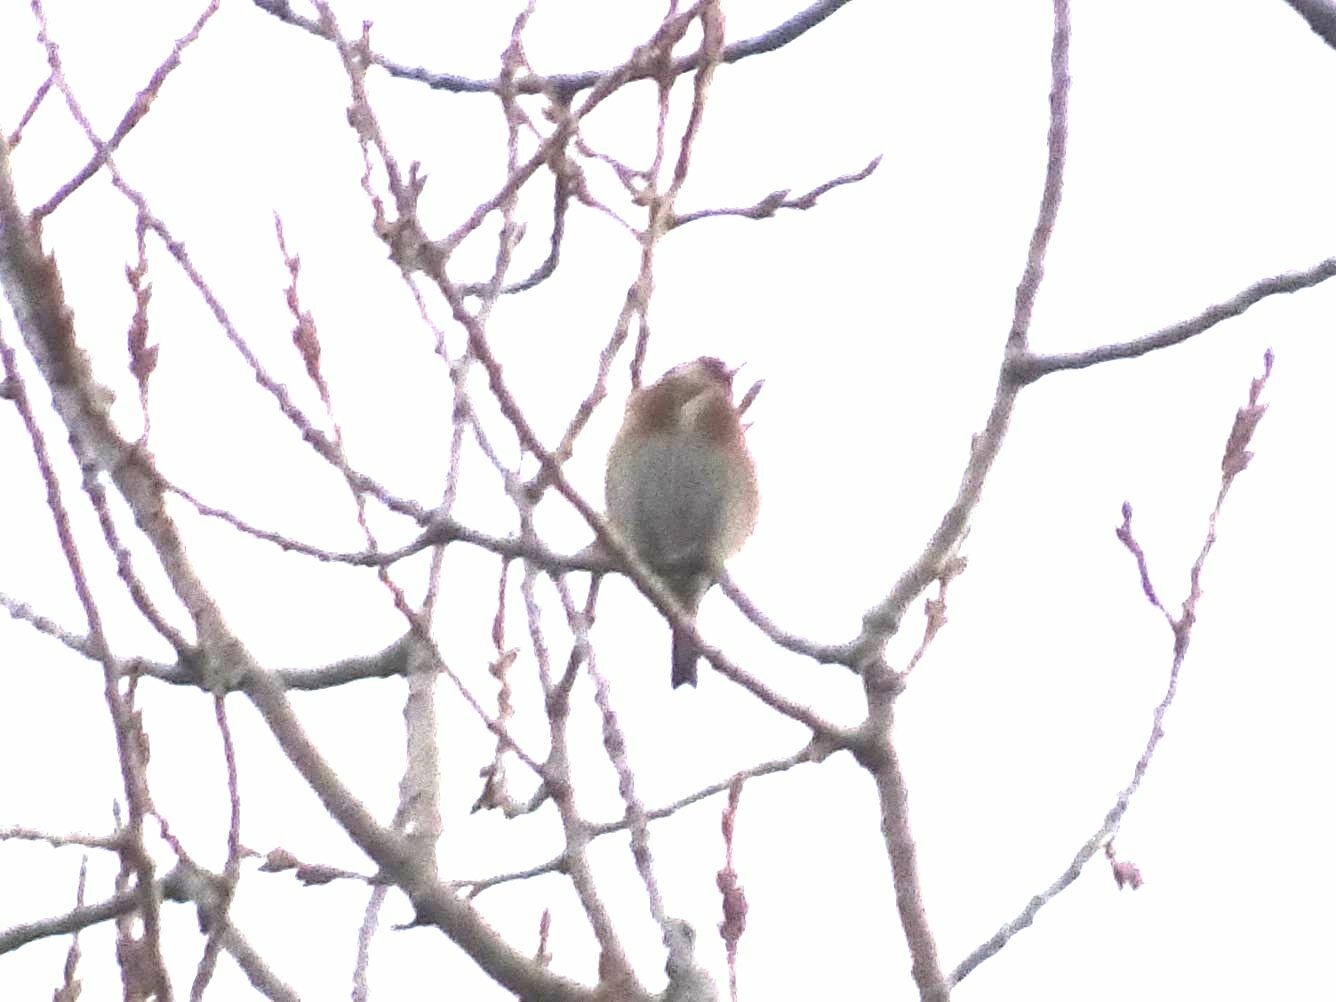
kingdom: Animalia
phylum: Chordata
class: Aves
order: Passeriformes
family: Fringillidae
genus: Carduelis
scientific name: Carduelis carduelis
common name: European goldfinch
